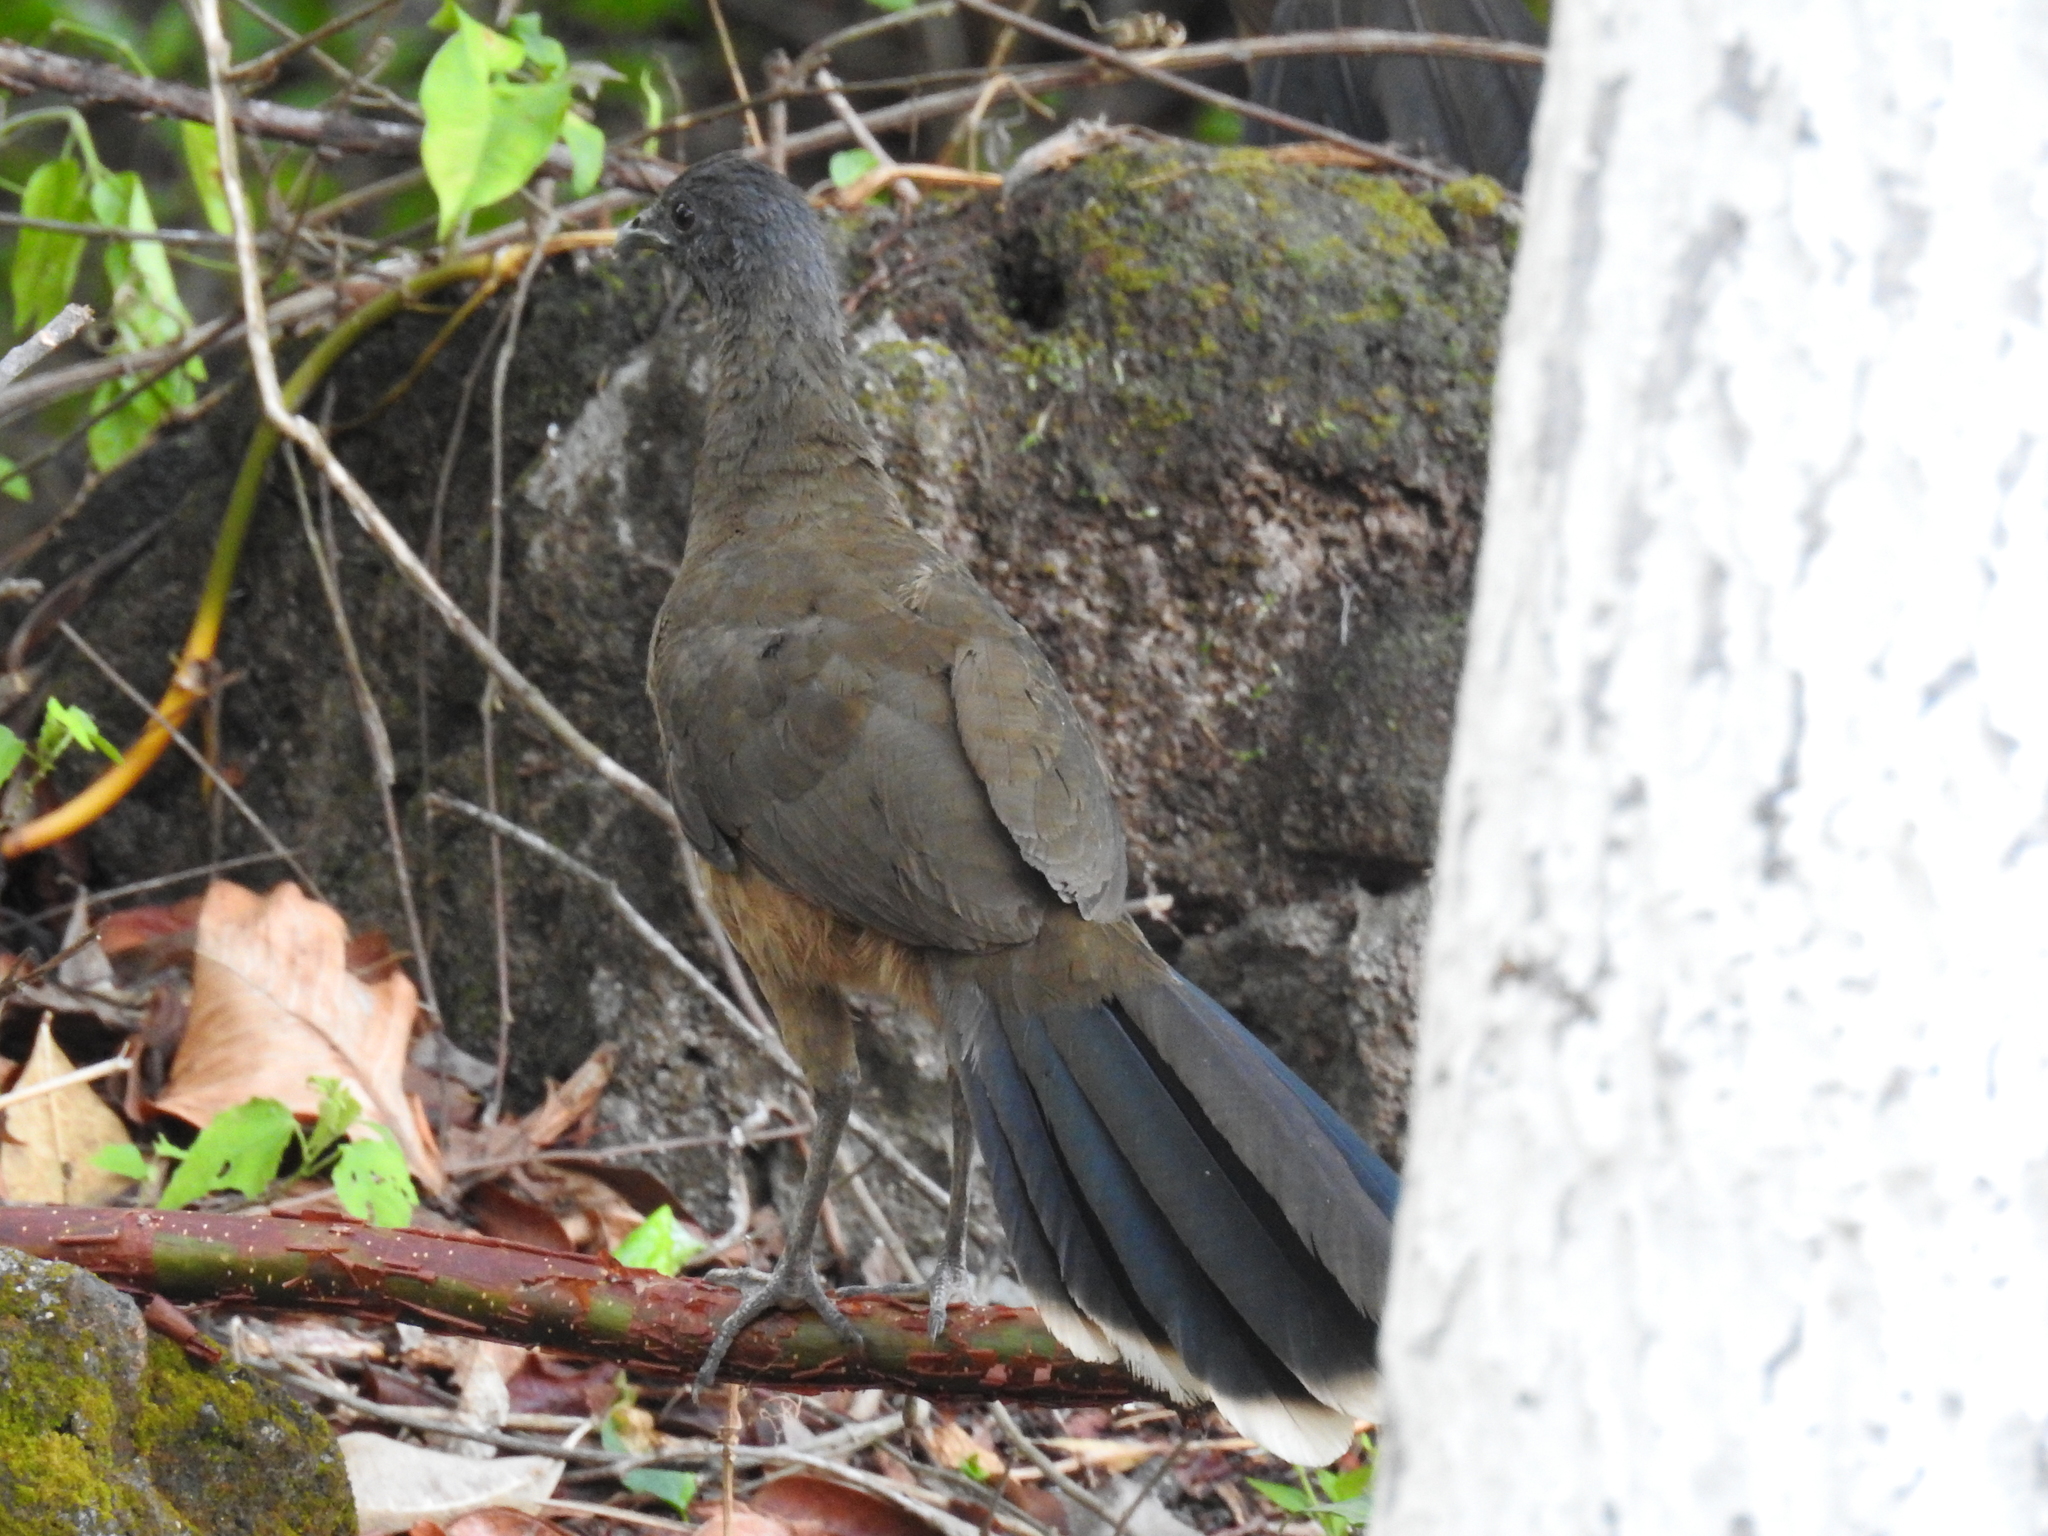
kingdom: Animalia
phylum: Chordata
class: Aves
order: Galliformes
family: Cracidae
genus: Ortalis
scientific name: Ortalis vetula
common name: Plain chachalaca
